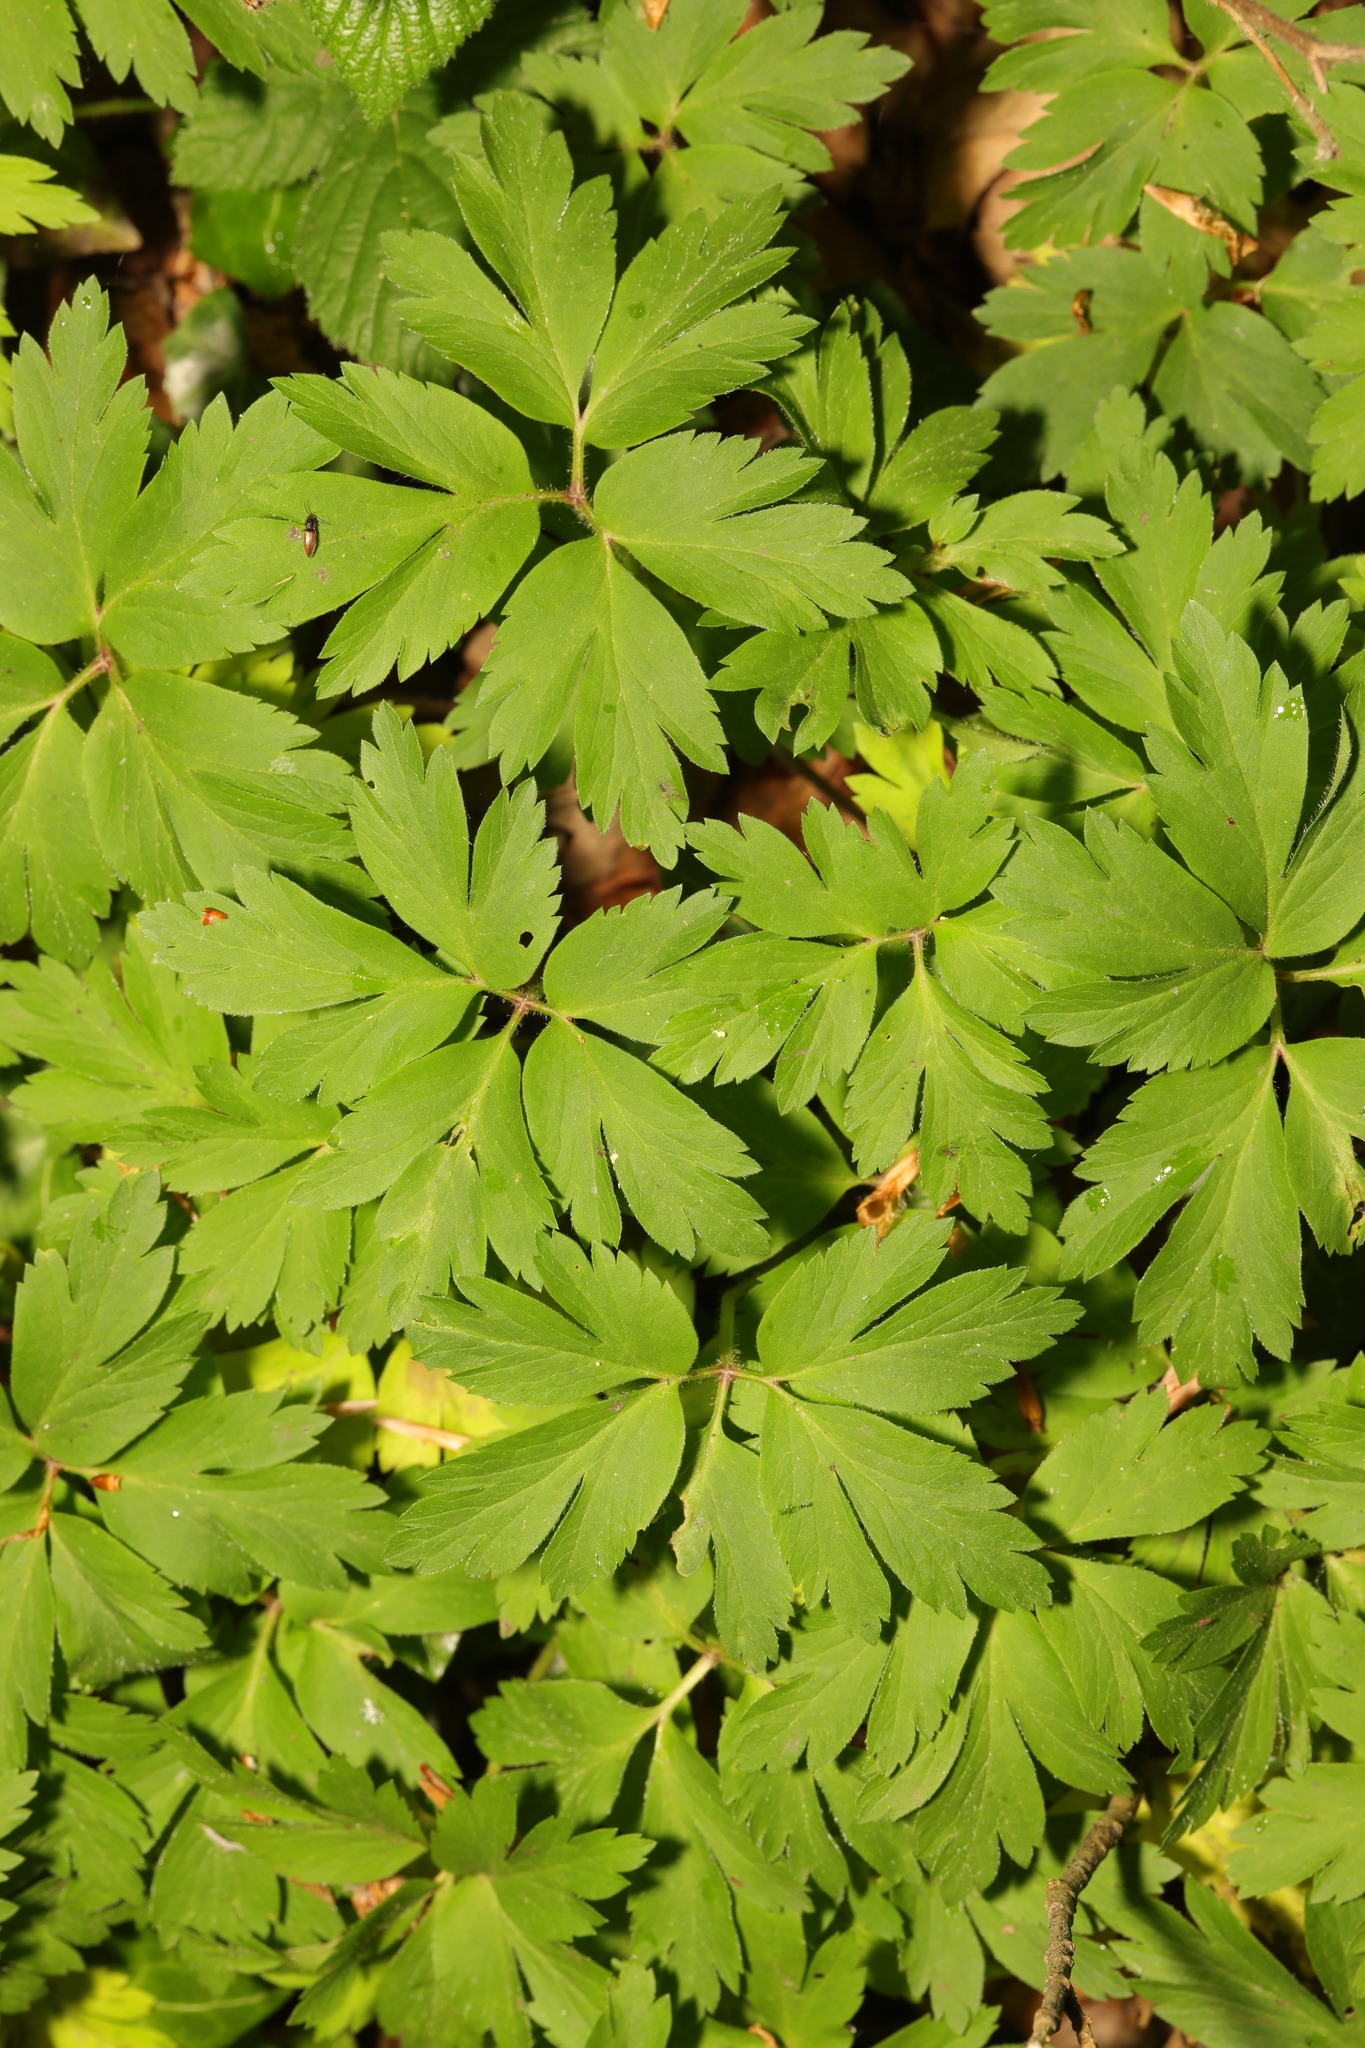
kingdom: Plantae
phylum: Tracheophyta
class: Magnoliopsida
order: Ranunculales
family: Ranunculaceae
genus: Anemone
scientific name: Anemone nemorosa
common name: Wood anemone
